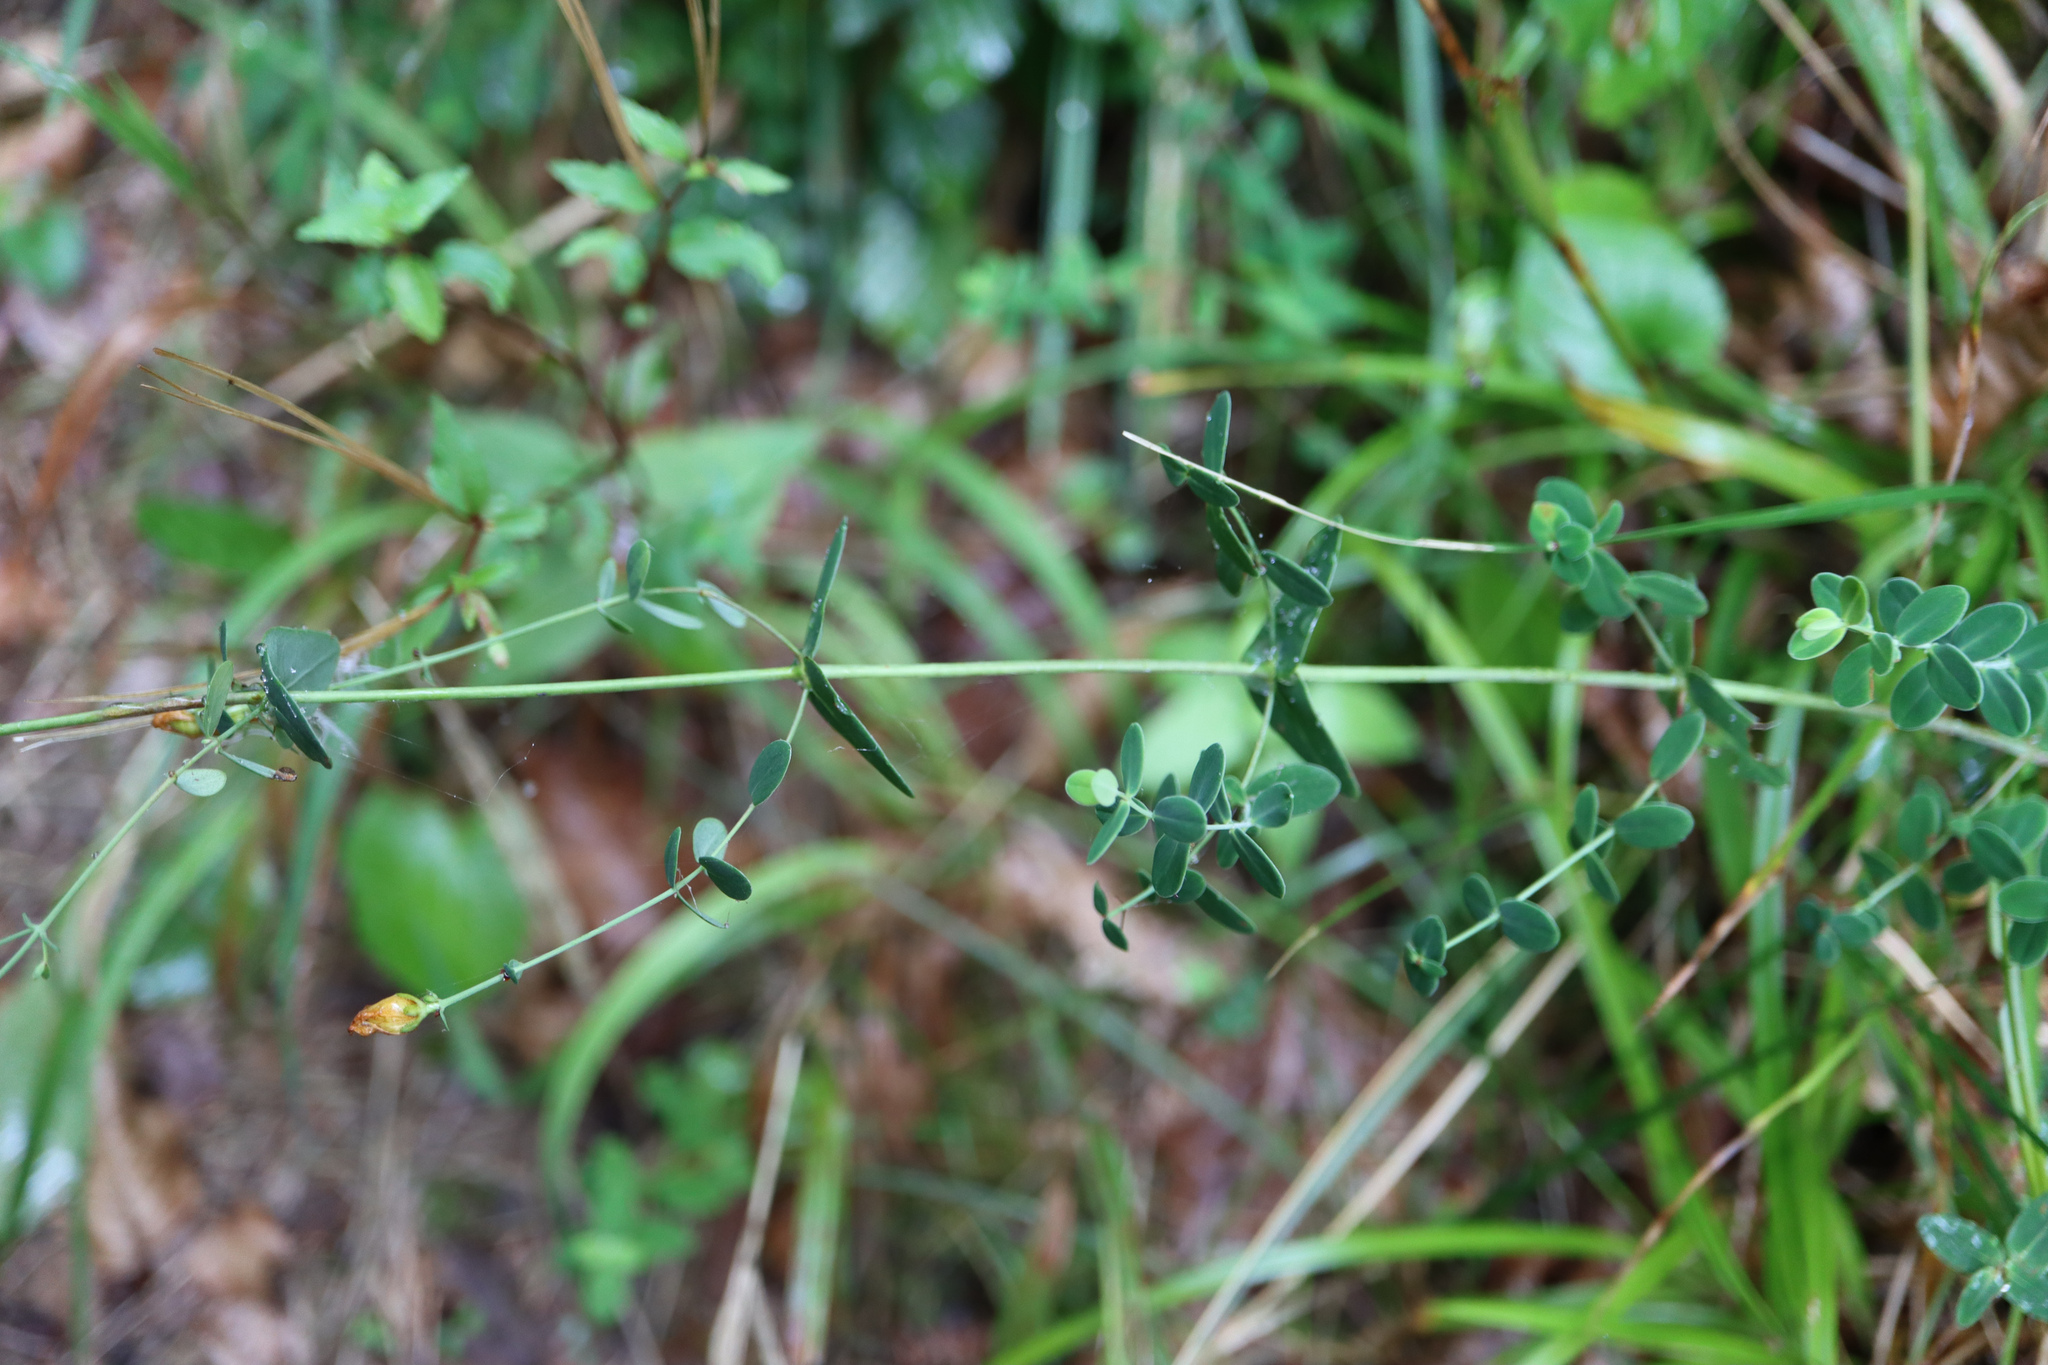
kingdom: Plantae
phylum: Tracheophyta
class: Magnoliopsida
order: Malpighiales
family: Hypericaceae
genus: Hypericum
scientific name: Hypericum pulchrum
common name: Slender st. john's-wort
